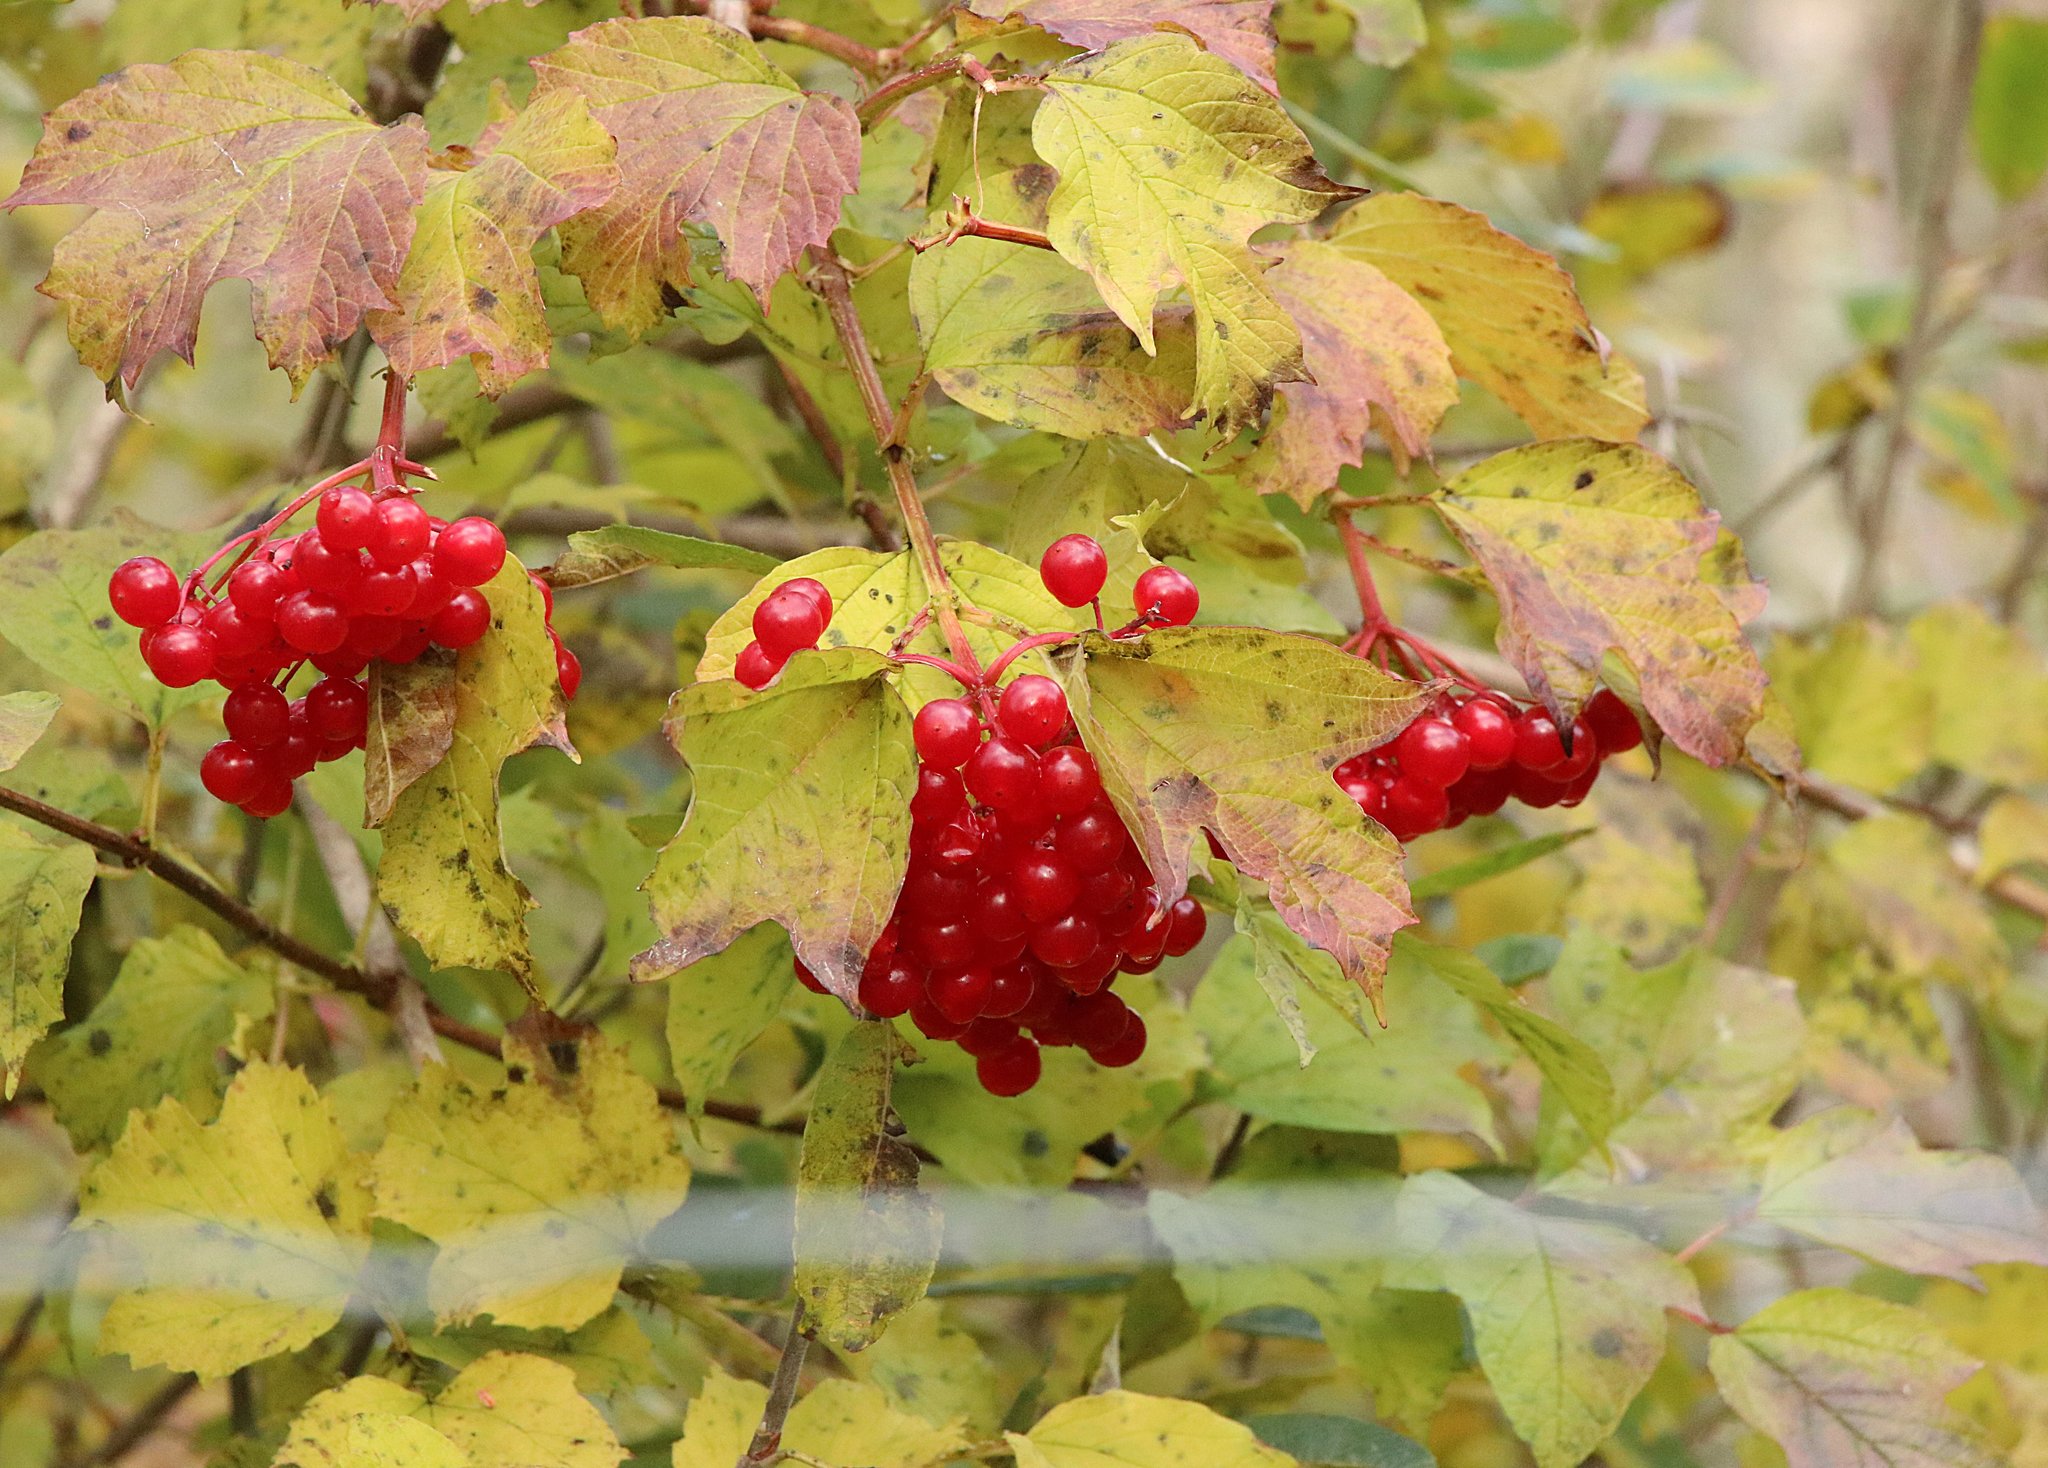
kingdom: Plantae
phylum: Tracheophyta
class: Magnoliopsida
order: Dipsacales
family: Viburnaceae
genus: Viburnum
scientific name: Viburnum opulus
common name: Guelder-rose
